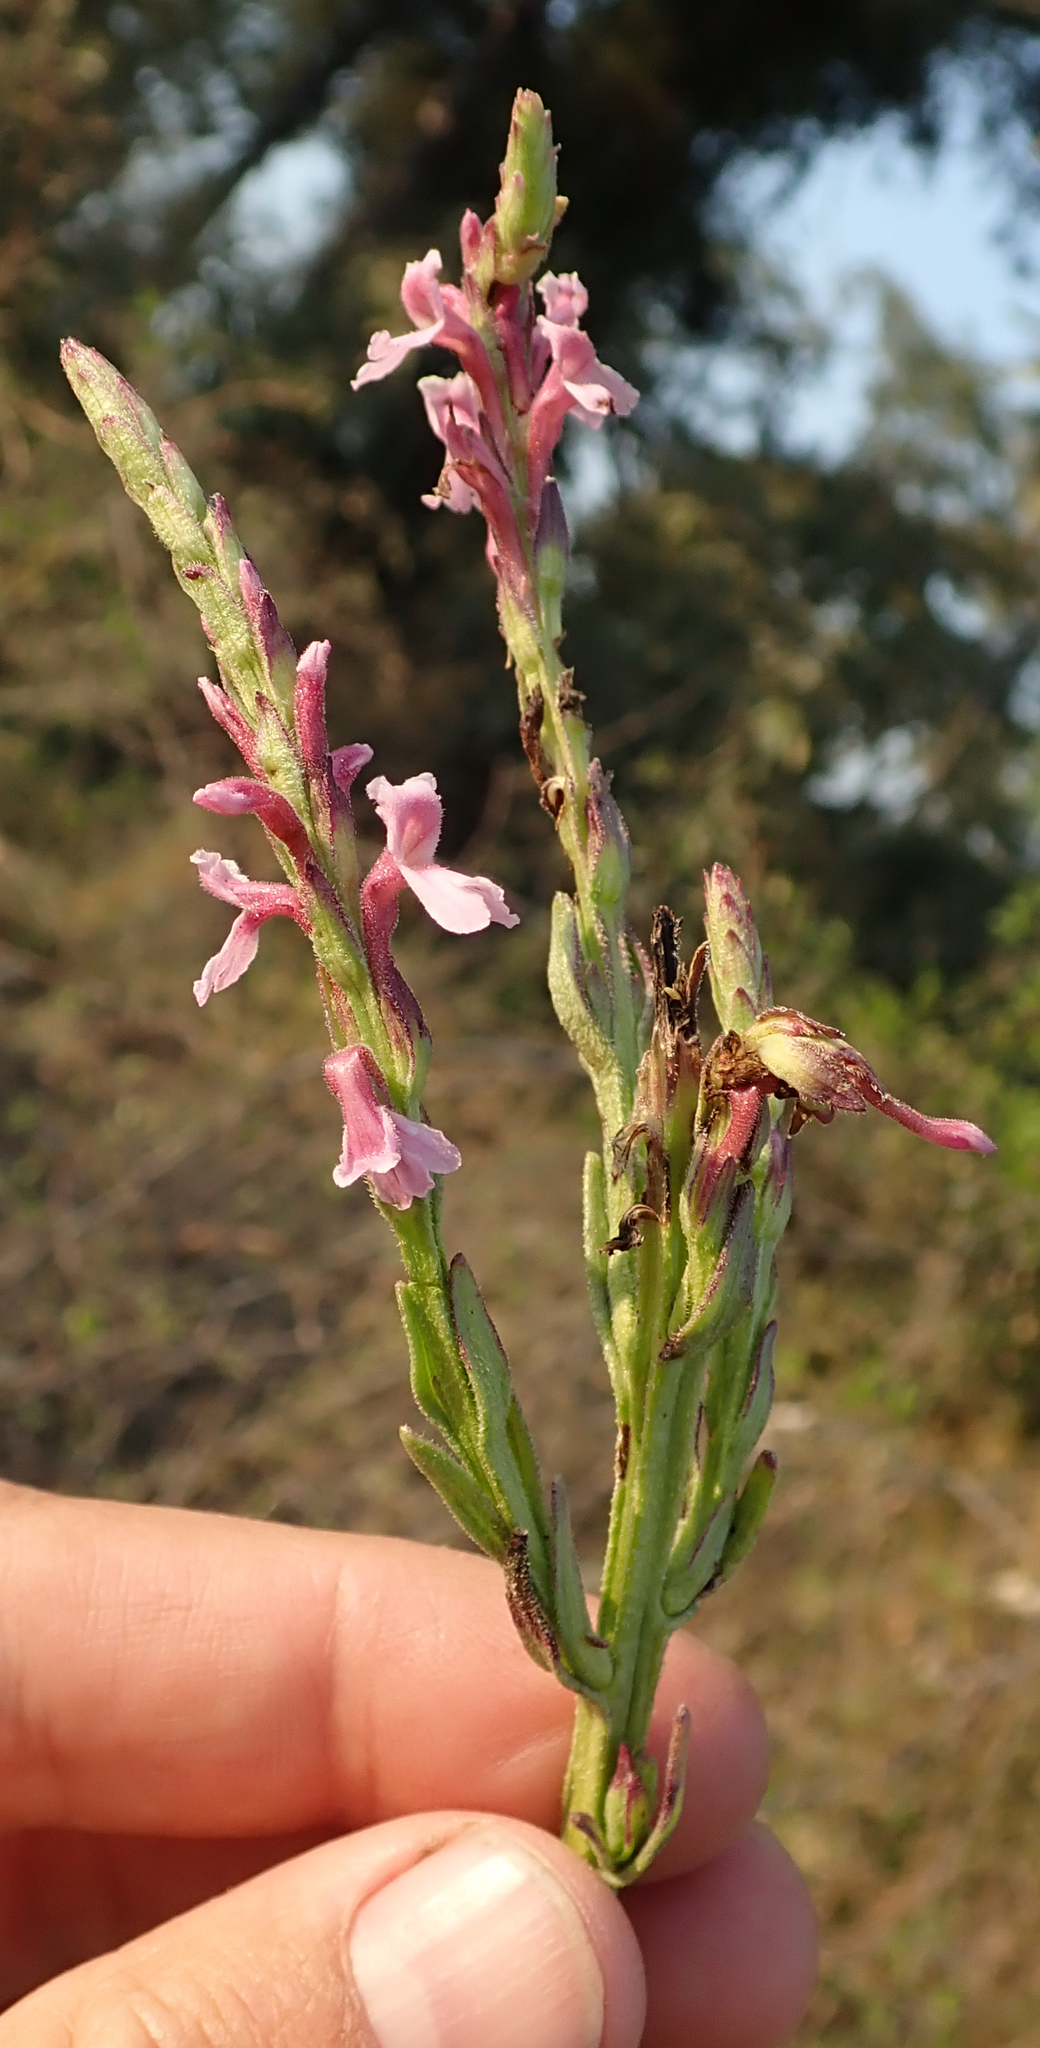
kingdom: Plantae
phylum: Tracheophyta
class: Magnoliopsida
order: Lamiales
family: Orobanchaceae
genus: Striga
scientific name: Striga bilabiata
